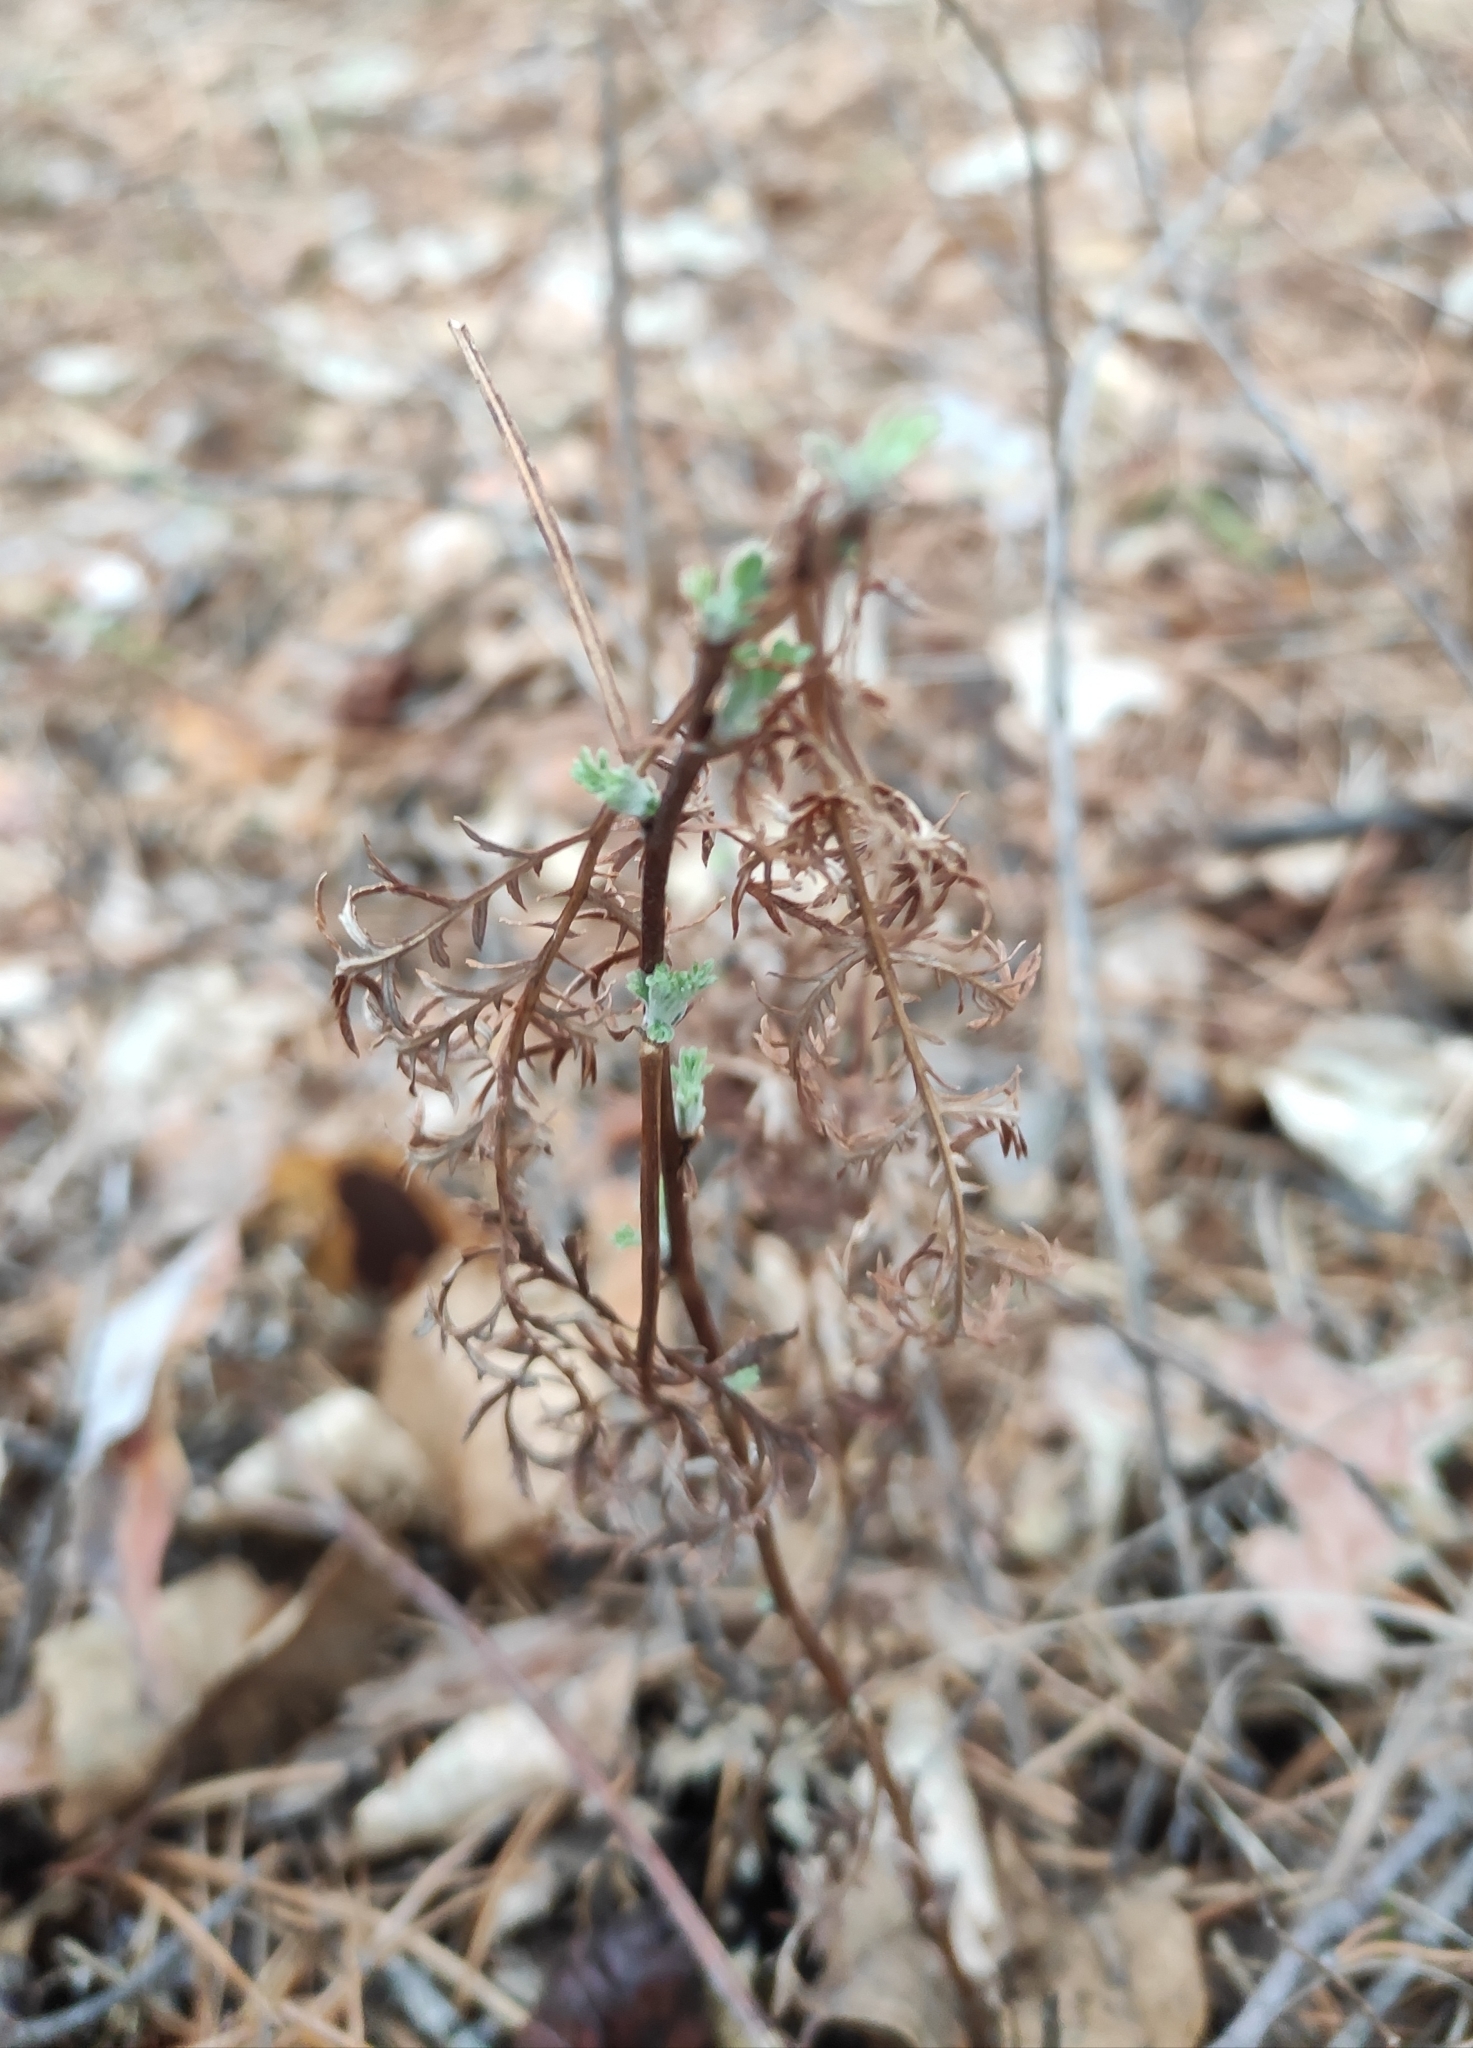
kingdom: Plantae
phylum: Tracheophyta
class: Magnoliopsida
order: Asterales
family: Asteraceae
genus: Artemisia
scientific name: Artemisia gmelinii
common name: Gmelin's wormwood
